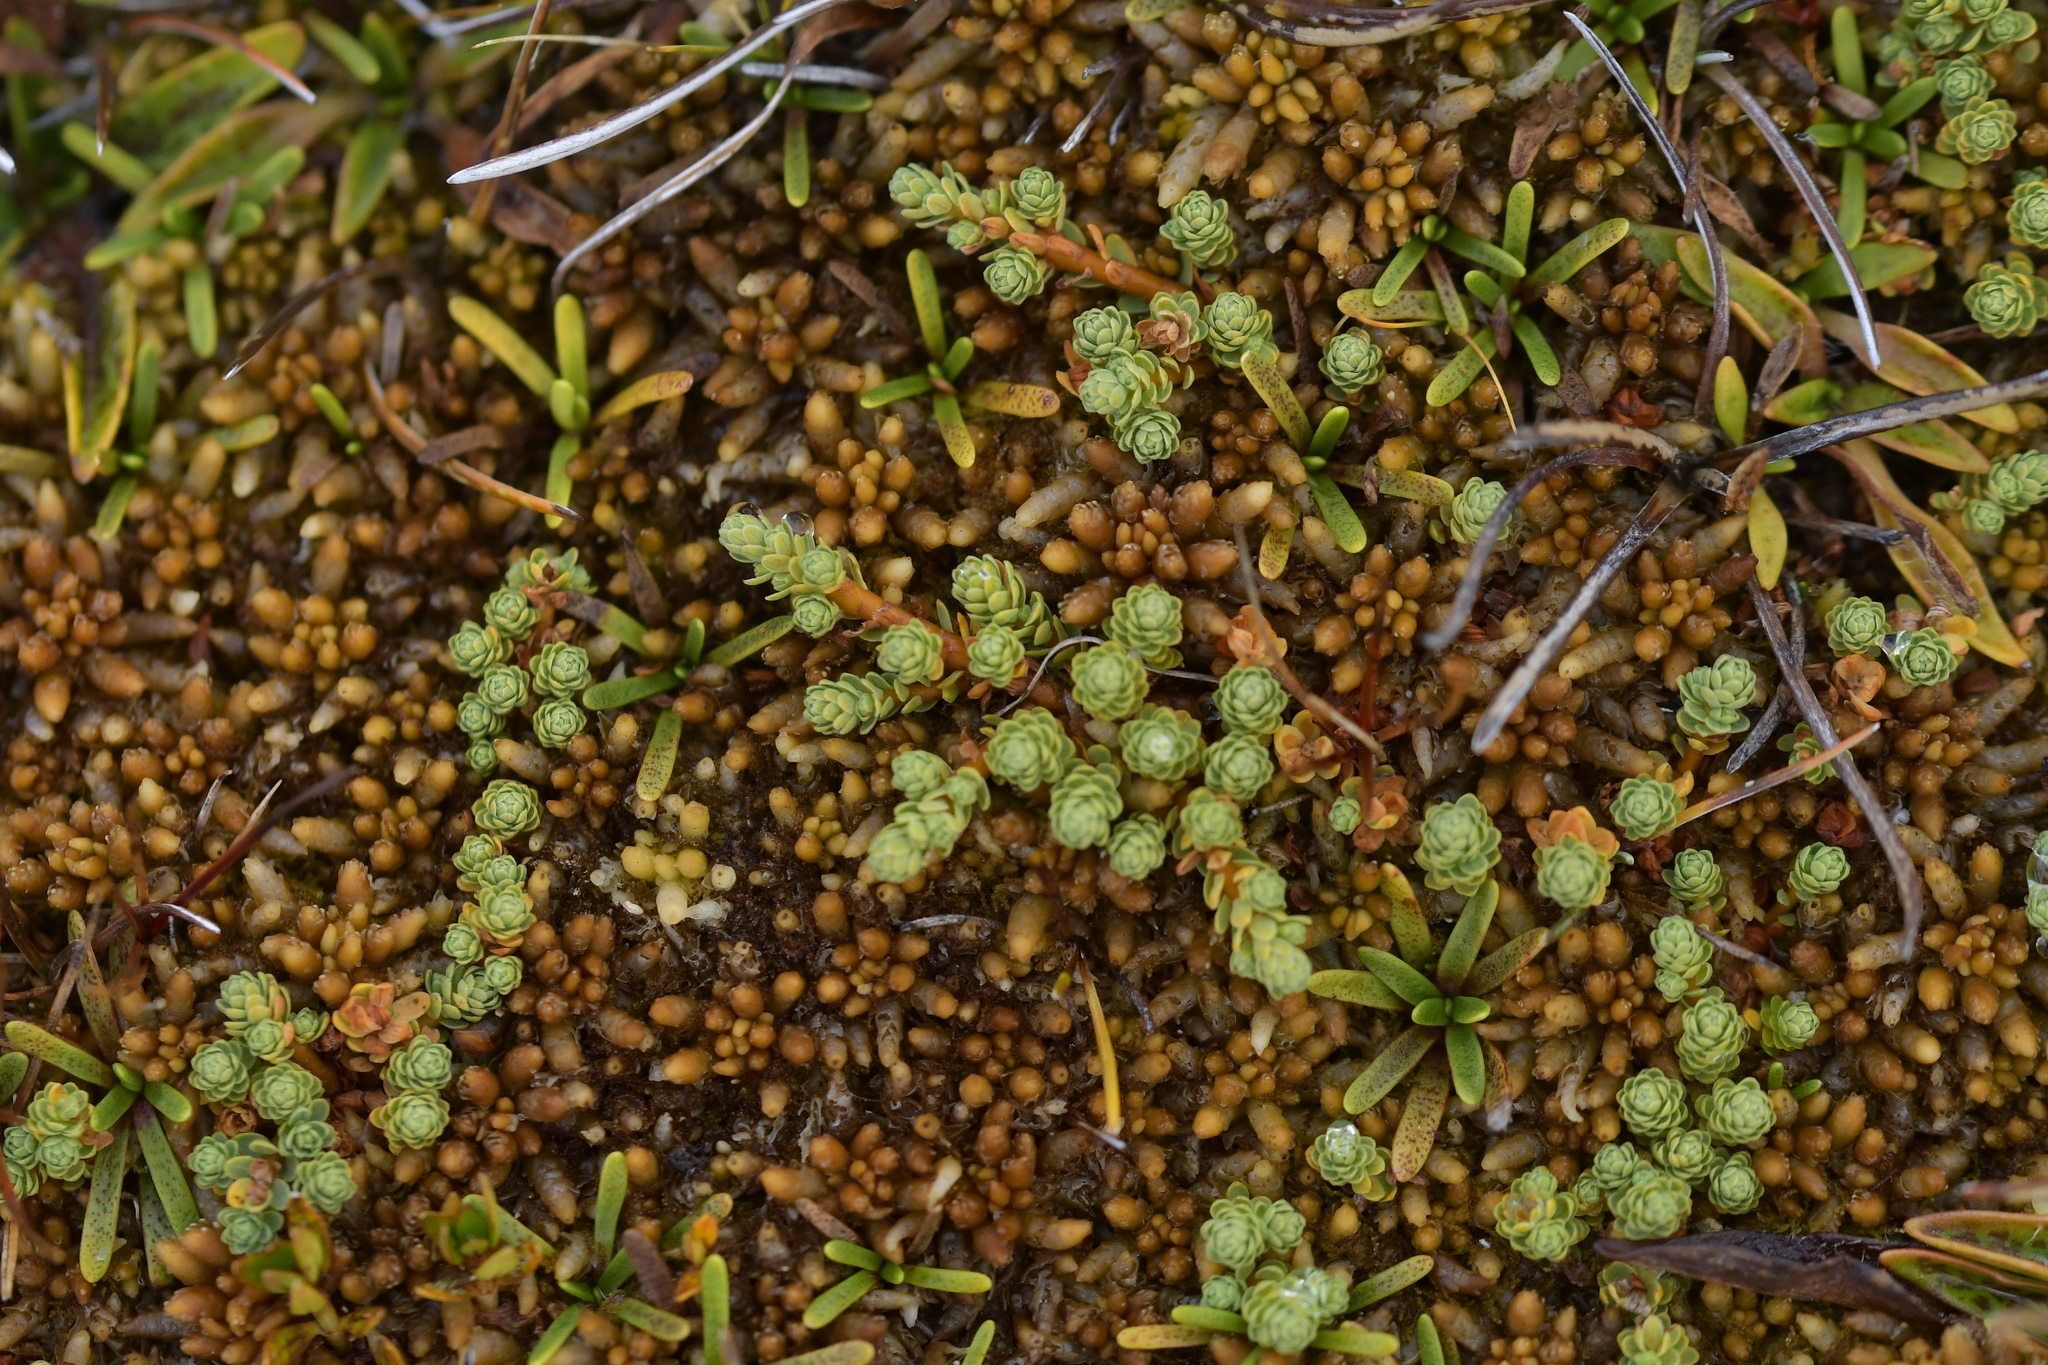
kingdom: Plantae
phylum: Tracheophyta
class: Magnoliopsida
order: Malvales
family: Thymelaeaceae
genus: Kelleria
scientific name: Kelleria paludosa
